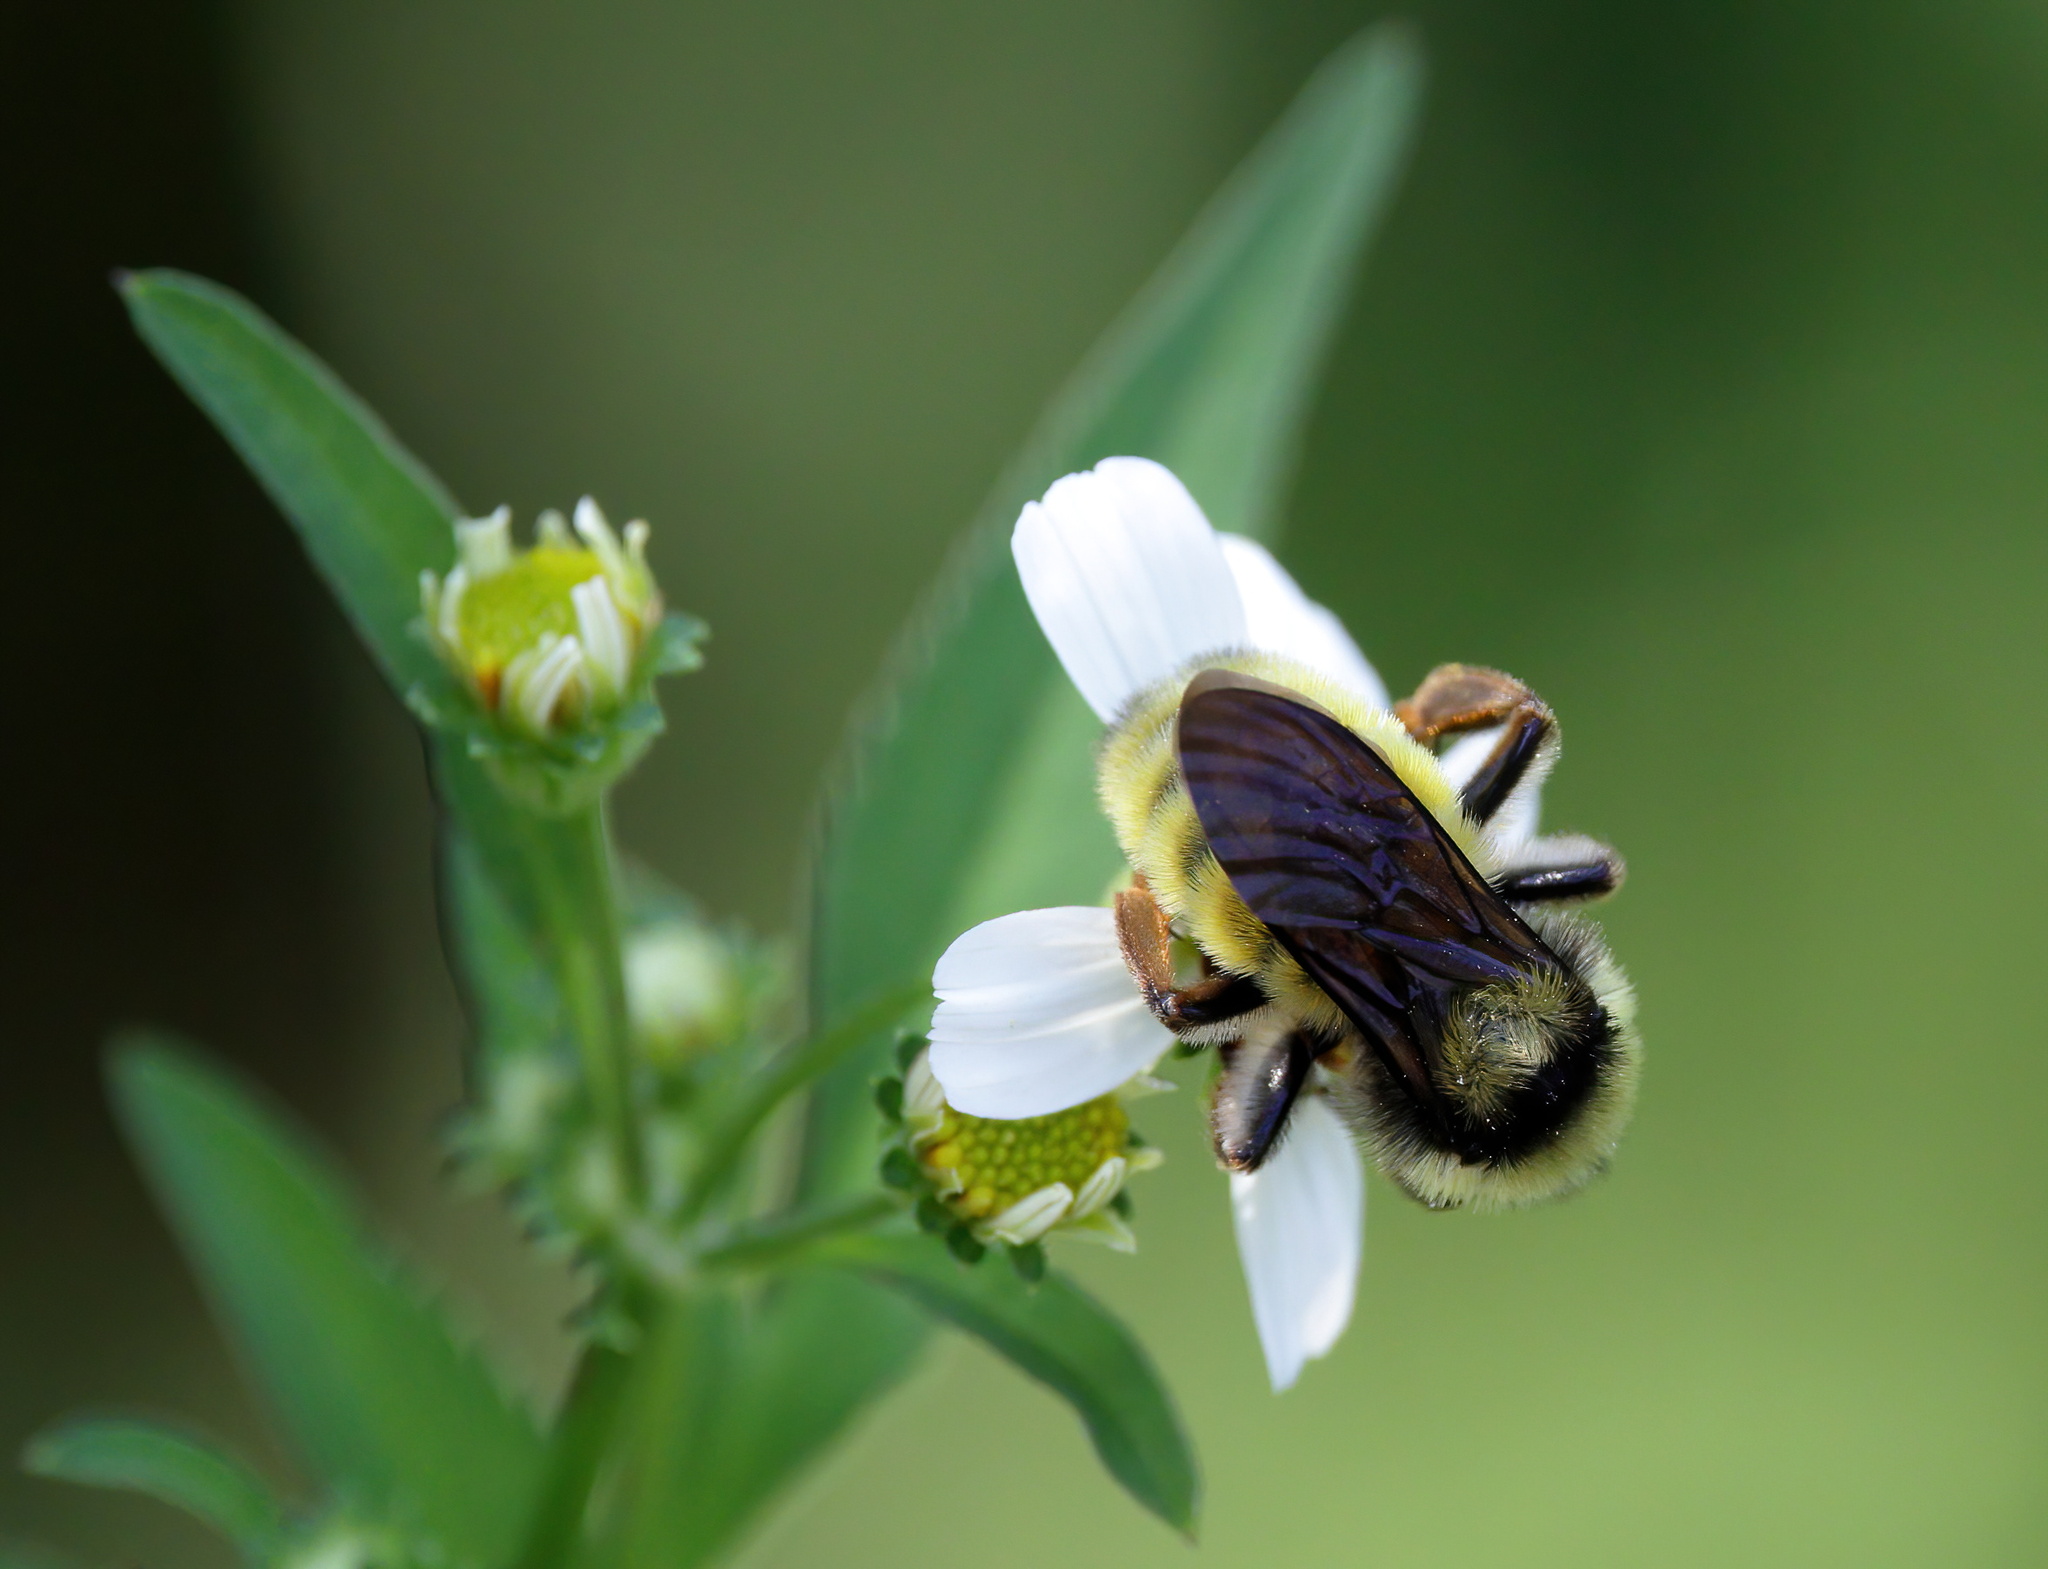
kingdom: Animalia
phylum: Arthropoda
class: Insecta
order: Hymenoptera
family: Apidae
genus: Bombus
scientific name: Bombus pensylvanicus
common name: Bumble bee
